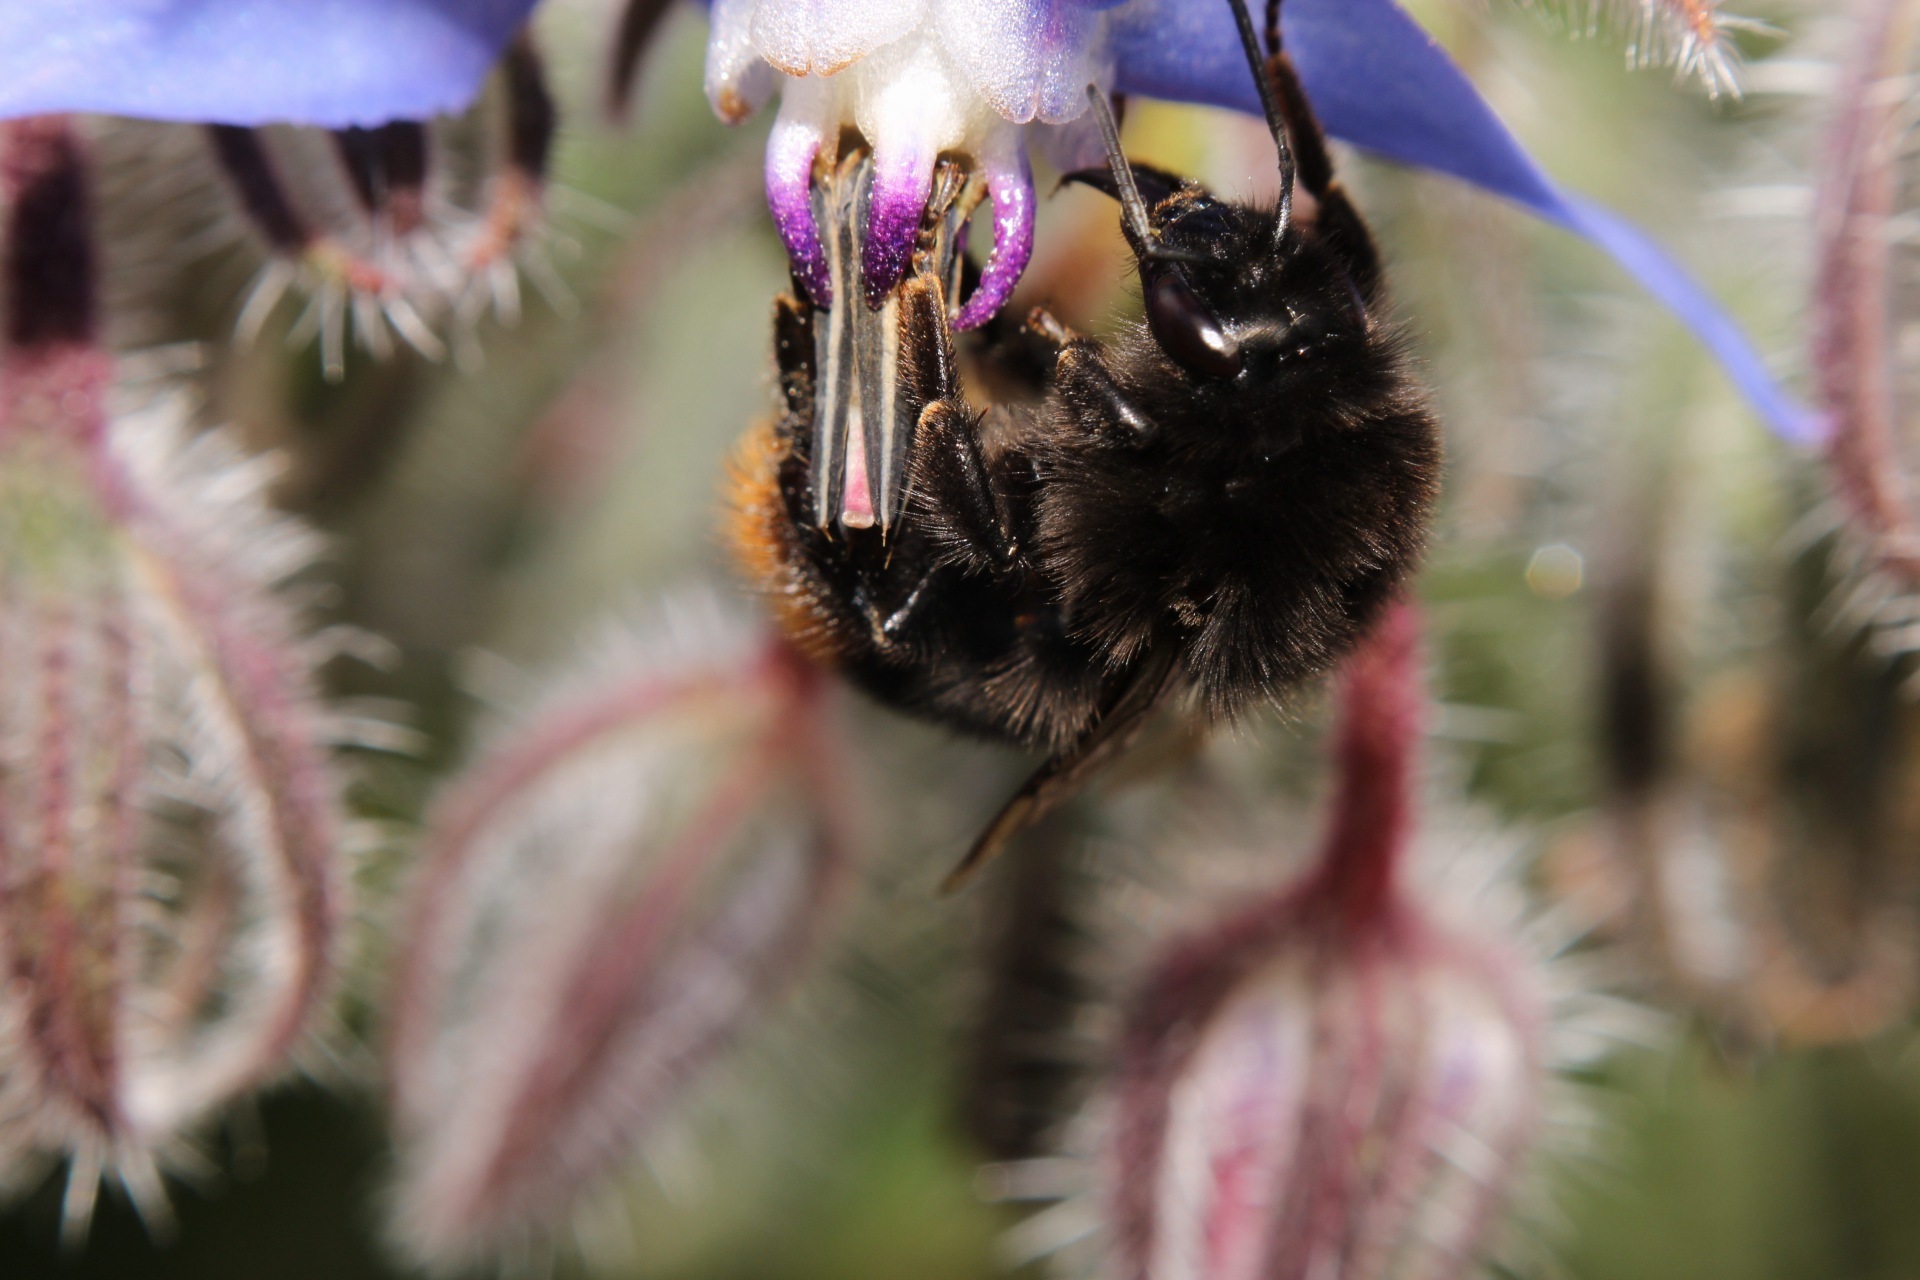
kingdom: Animalia
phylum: Arthropoda
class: Insecta
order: Hymenoptera
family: Apidae
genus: Bombus
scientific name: Bombus lapidarius
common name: Large red-tailed humble-bee
